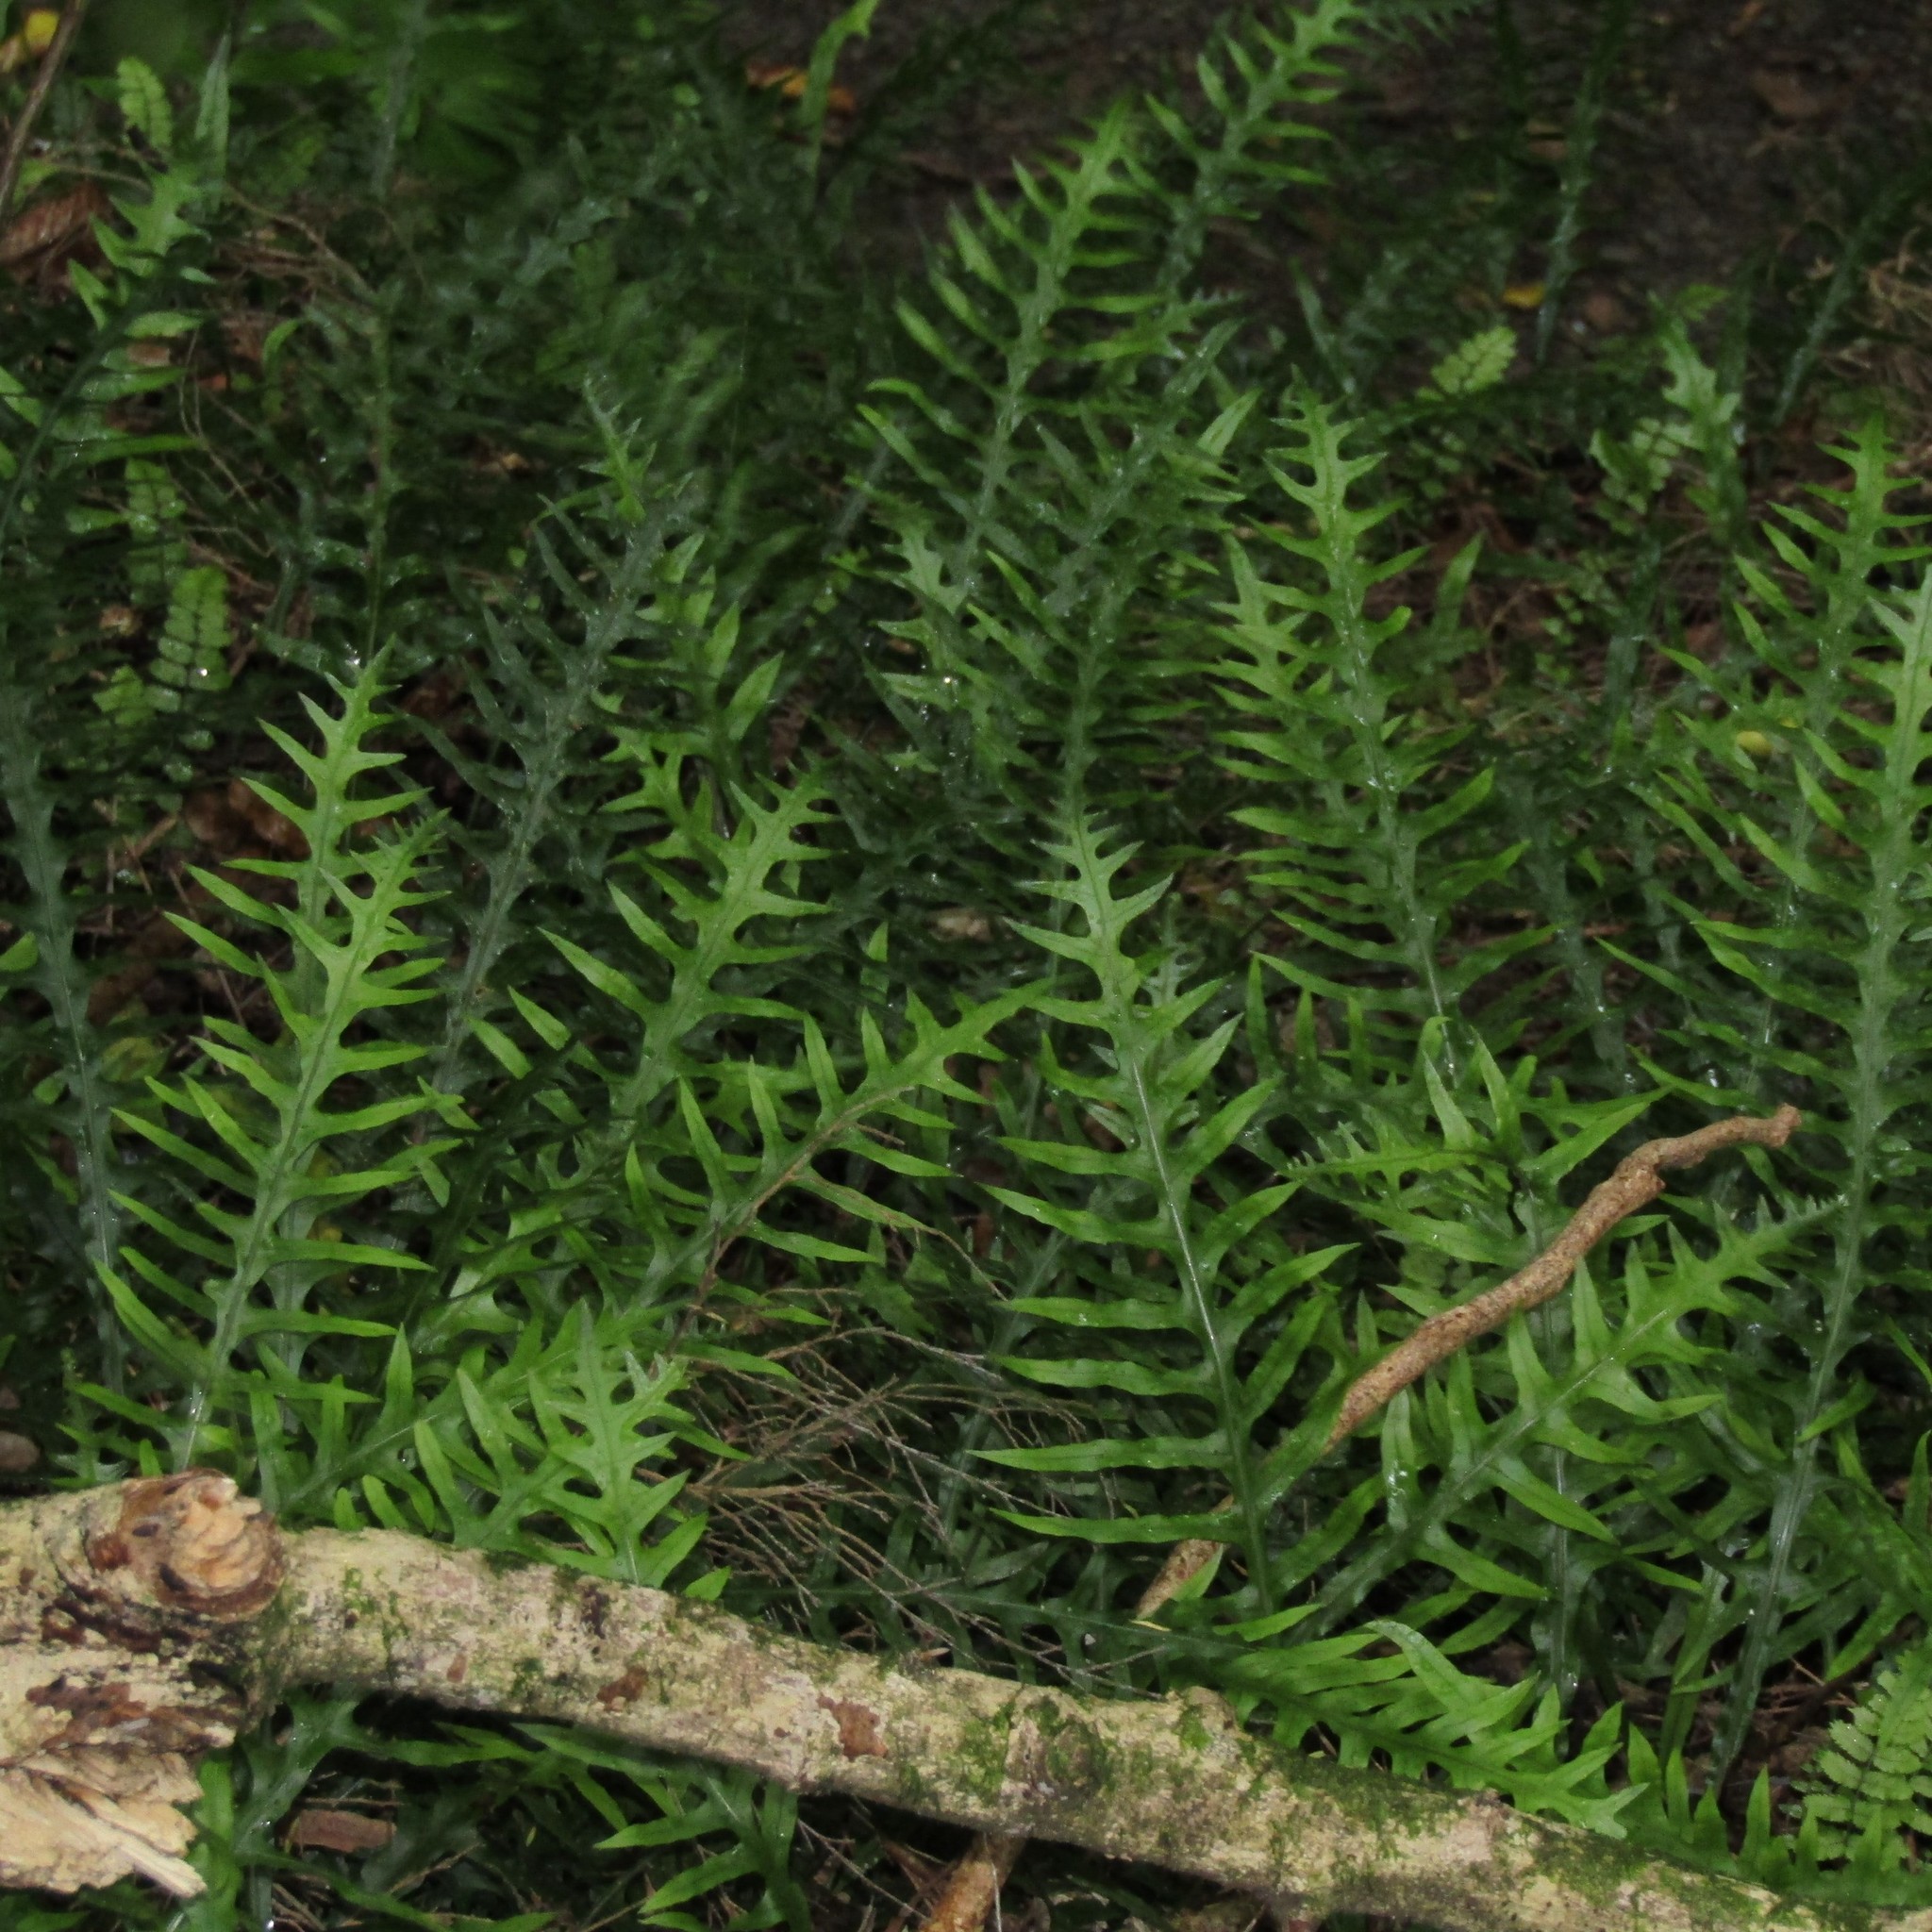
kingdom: Plantae
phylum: Tracheophyta
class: Polypodiopsida
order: Polypodiales
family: Polypodiaceae
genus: Lecanopteris
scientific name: Lecanopteris scandens
